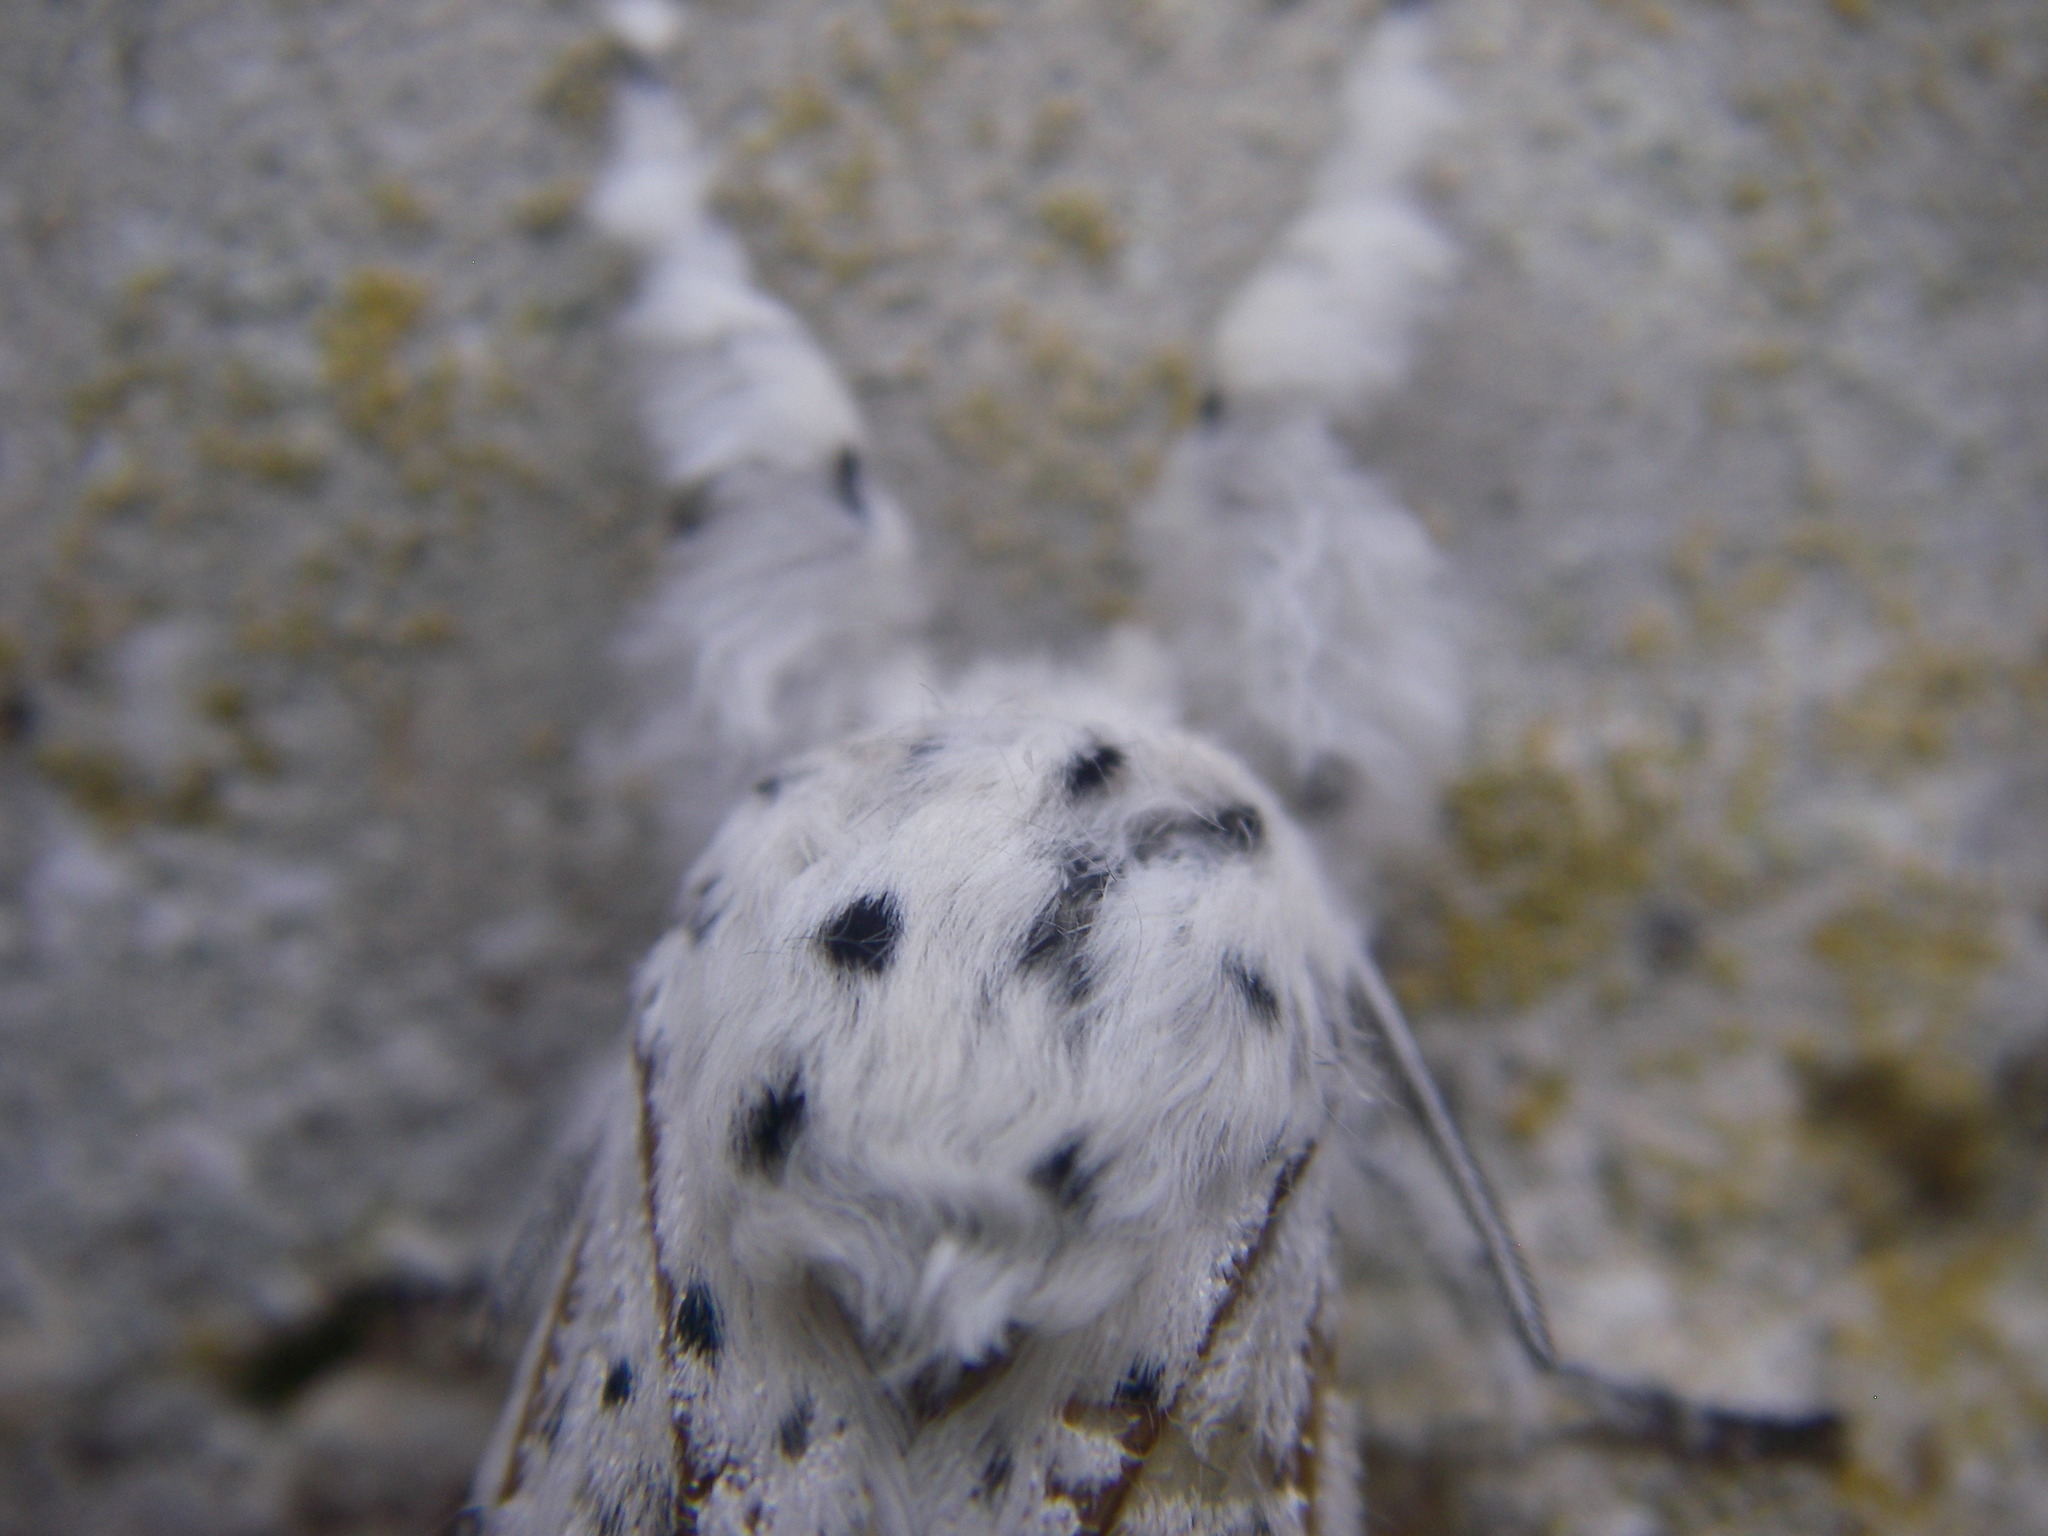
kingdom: Animalia
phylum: Arthropoda
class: Insecta
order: Lepidoptera
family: Notodontidae
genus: Cerura
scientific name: Cerura erminea
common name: Lesser puss moth
